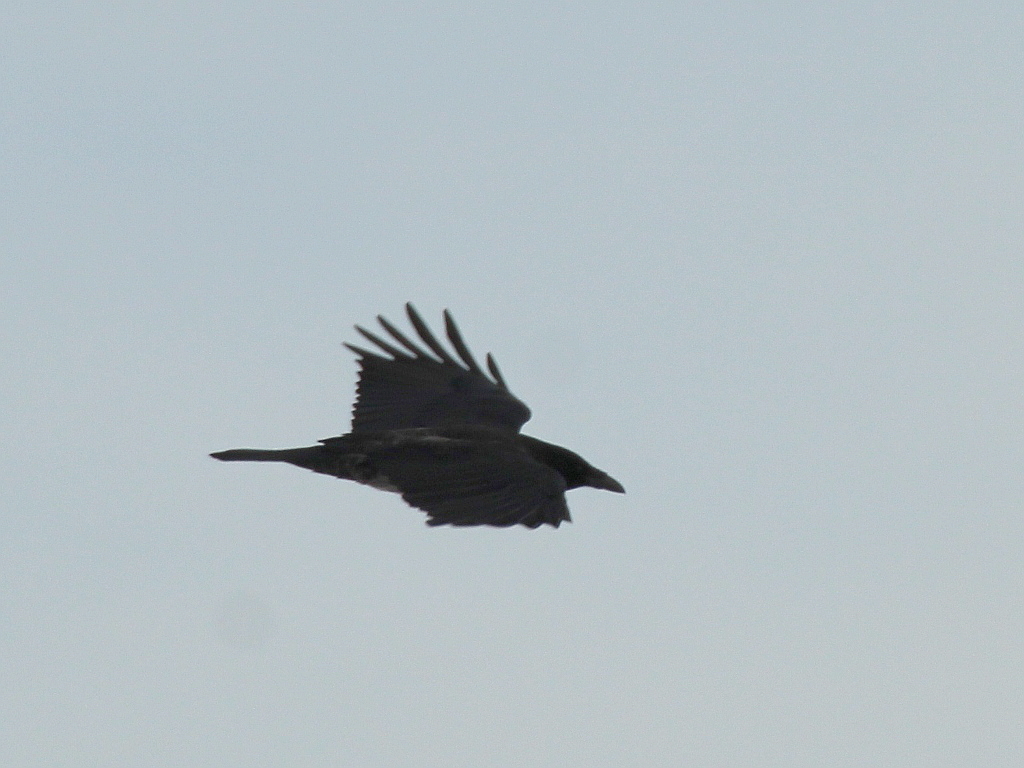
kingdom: Animalia
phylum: Chordata
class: Aves
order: Passeriformes
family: Corvidae
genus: Corvus
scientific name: Corvus corone
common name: Carrion crow
